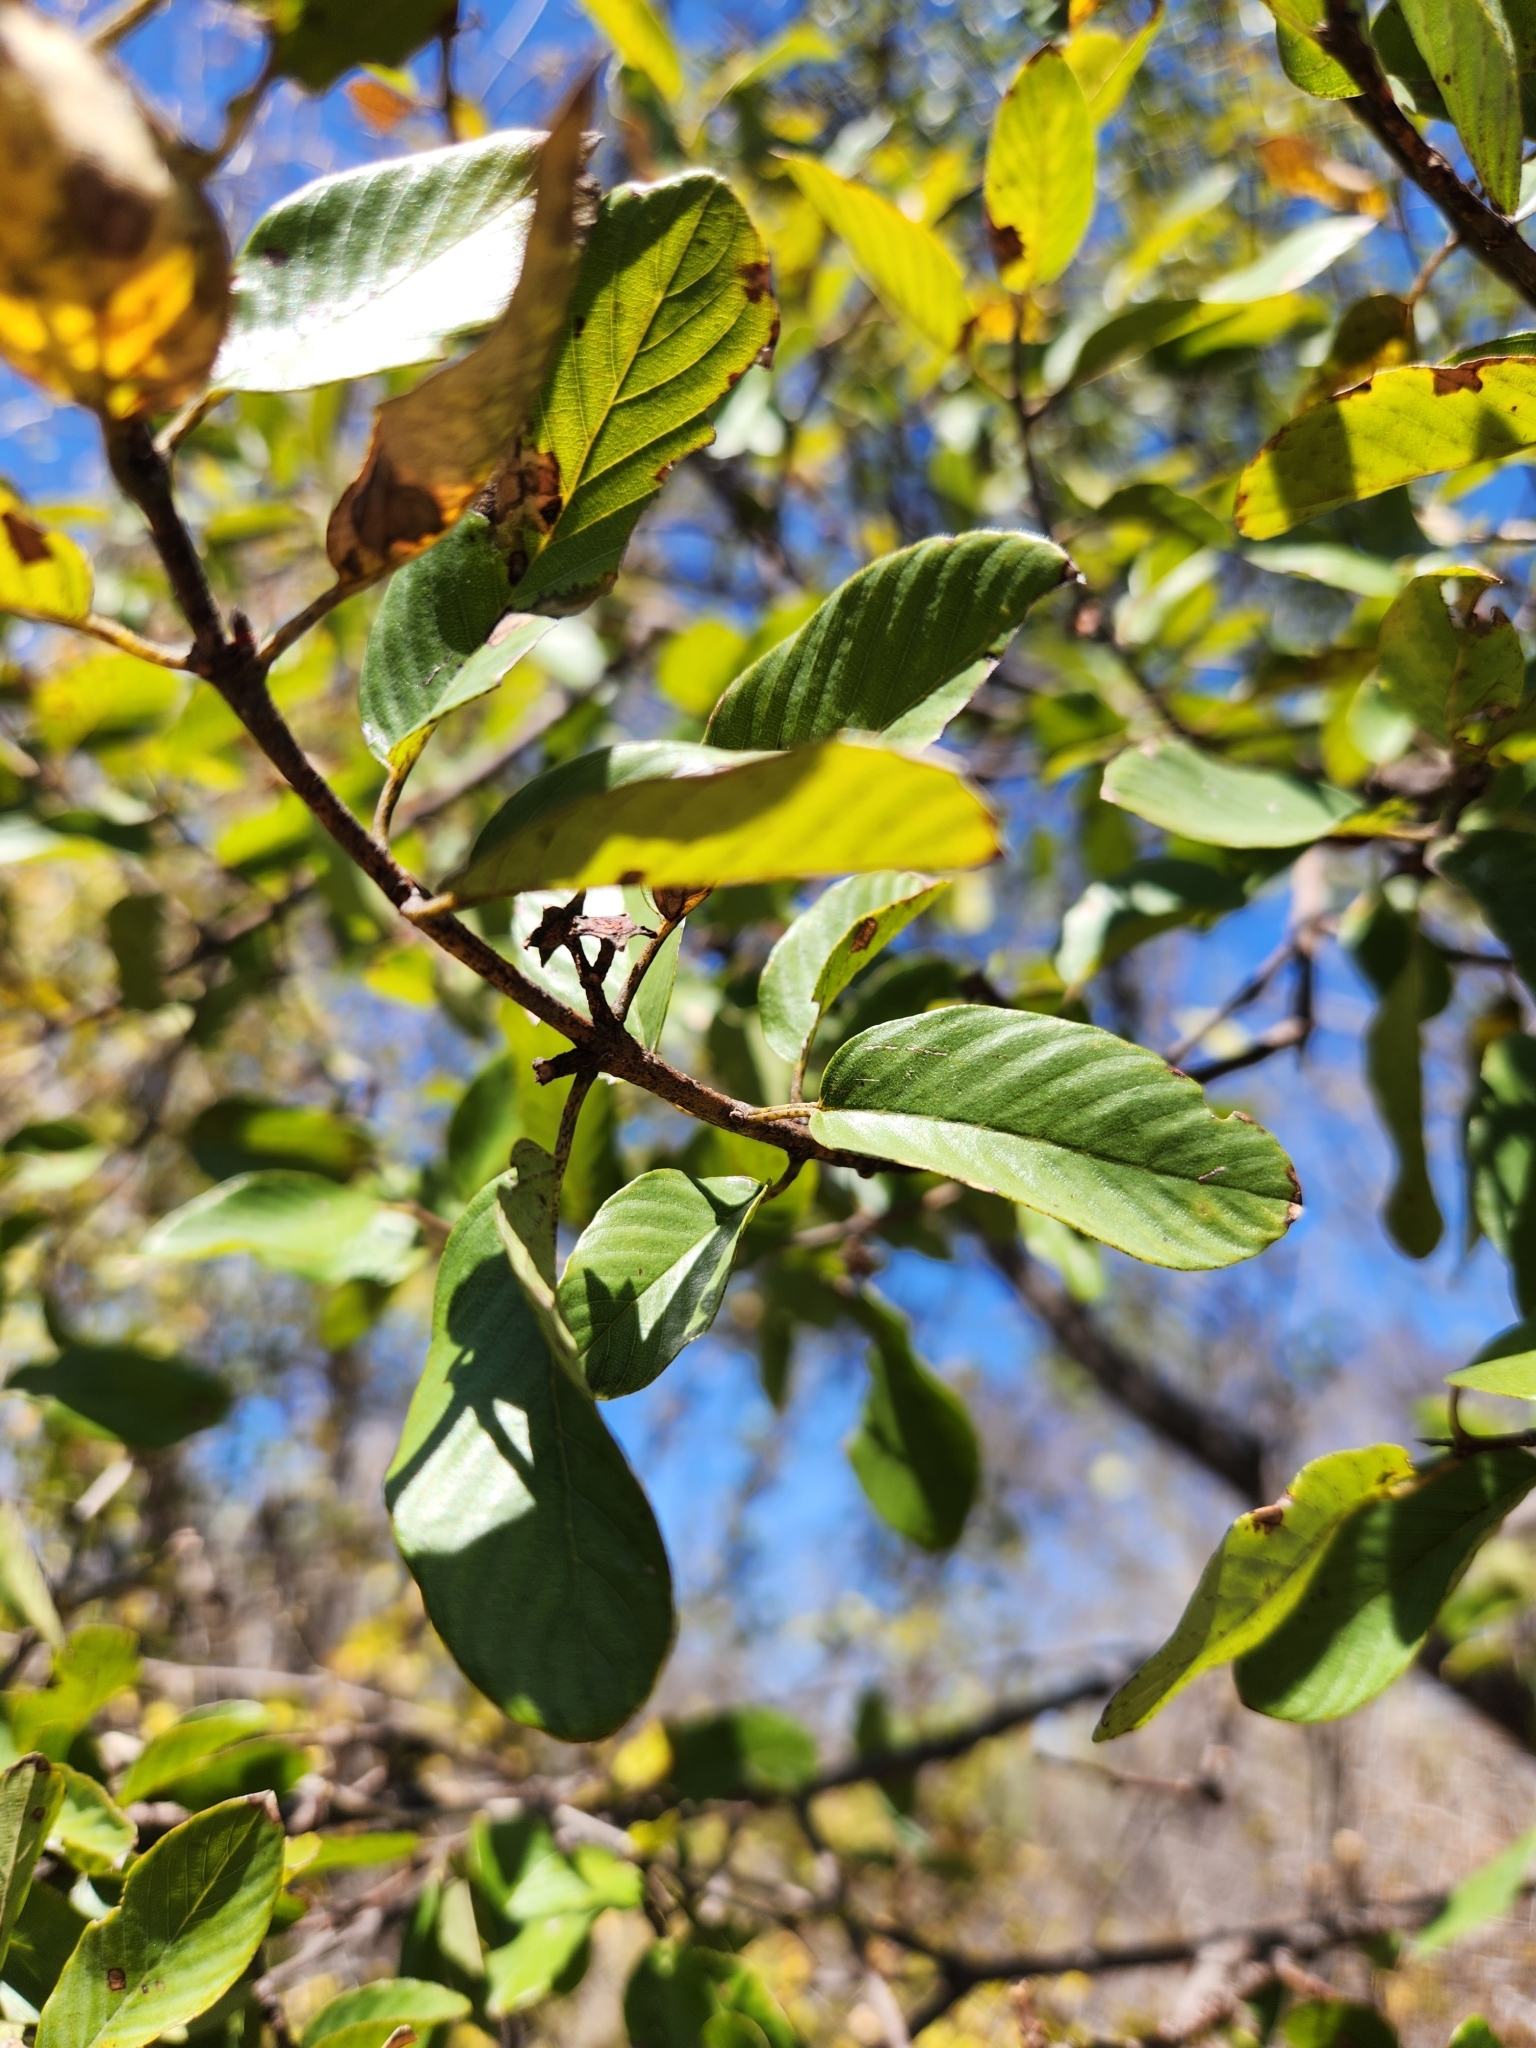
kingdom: Plantae
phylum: Tracheophyta
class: Magnoliopsida
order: Rosales
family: Rhamnaceae
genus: Karwinskia
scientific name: Karwinskia humboldtiana
